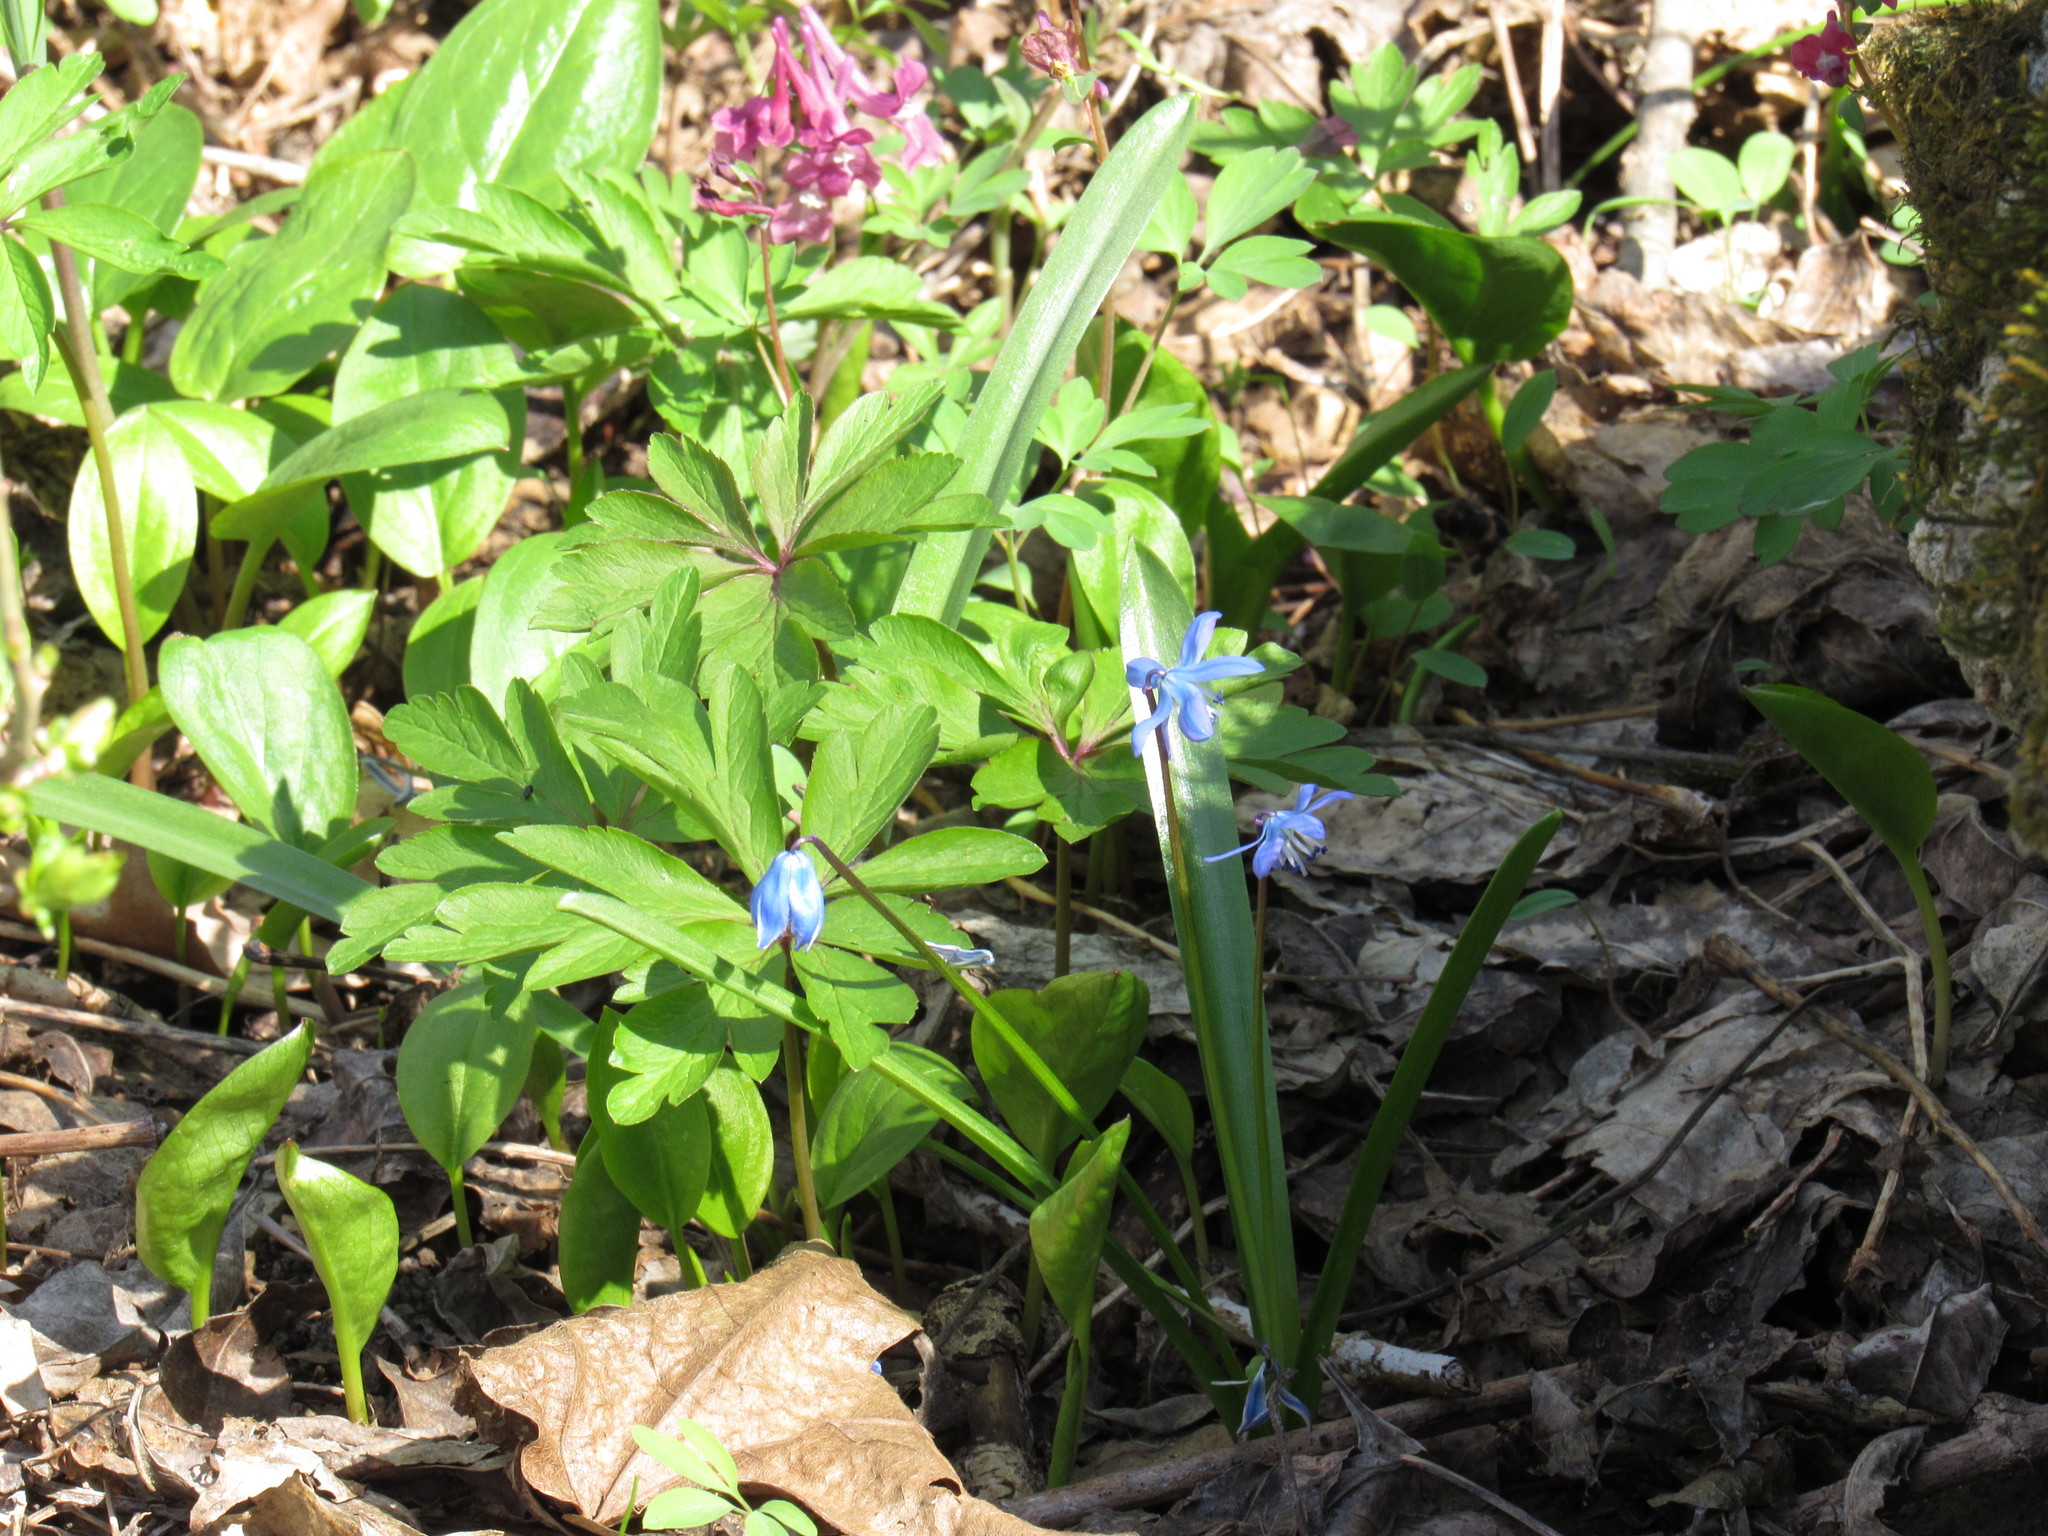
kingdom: Plantae
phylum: Tracheophyta
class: Liliopsida
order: Asparagales
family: Asparagaceae
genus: Scilla
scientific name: Scilla siberica
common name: Siberian squill
